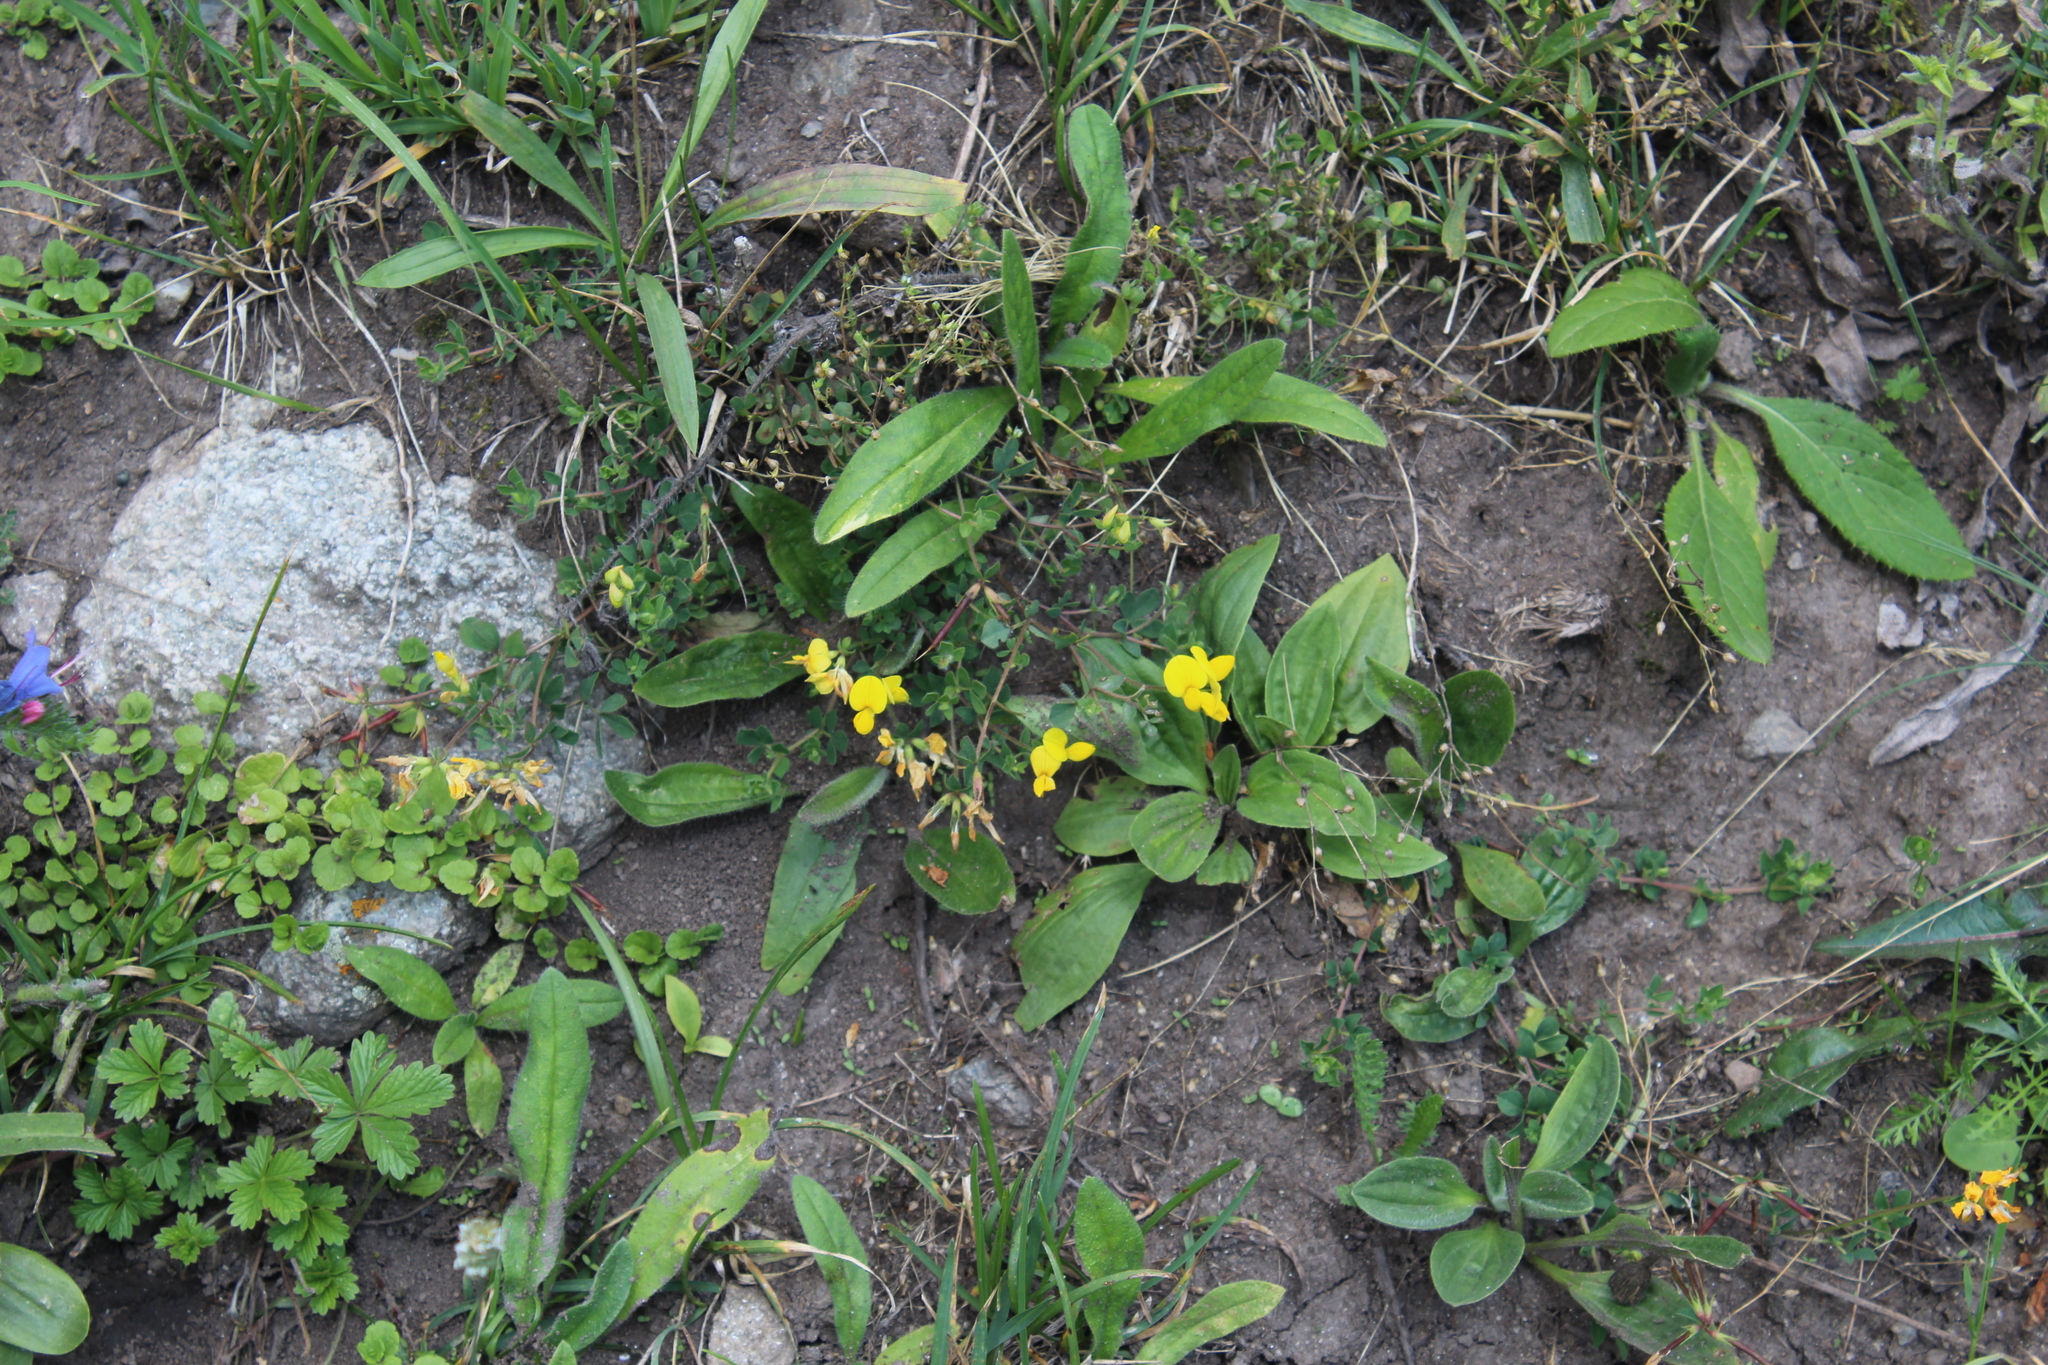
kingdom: Plantae
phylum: Tracheophyta
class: Magnoliopsida
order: Fabales
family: Fabaceae
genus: Lotus
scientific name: Lotus corniculatus
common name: Common bird's-foot-trefoil
